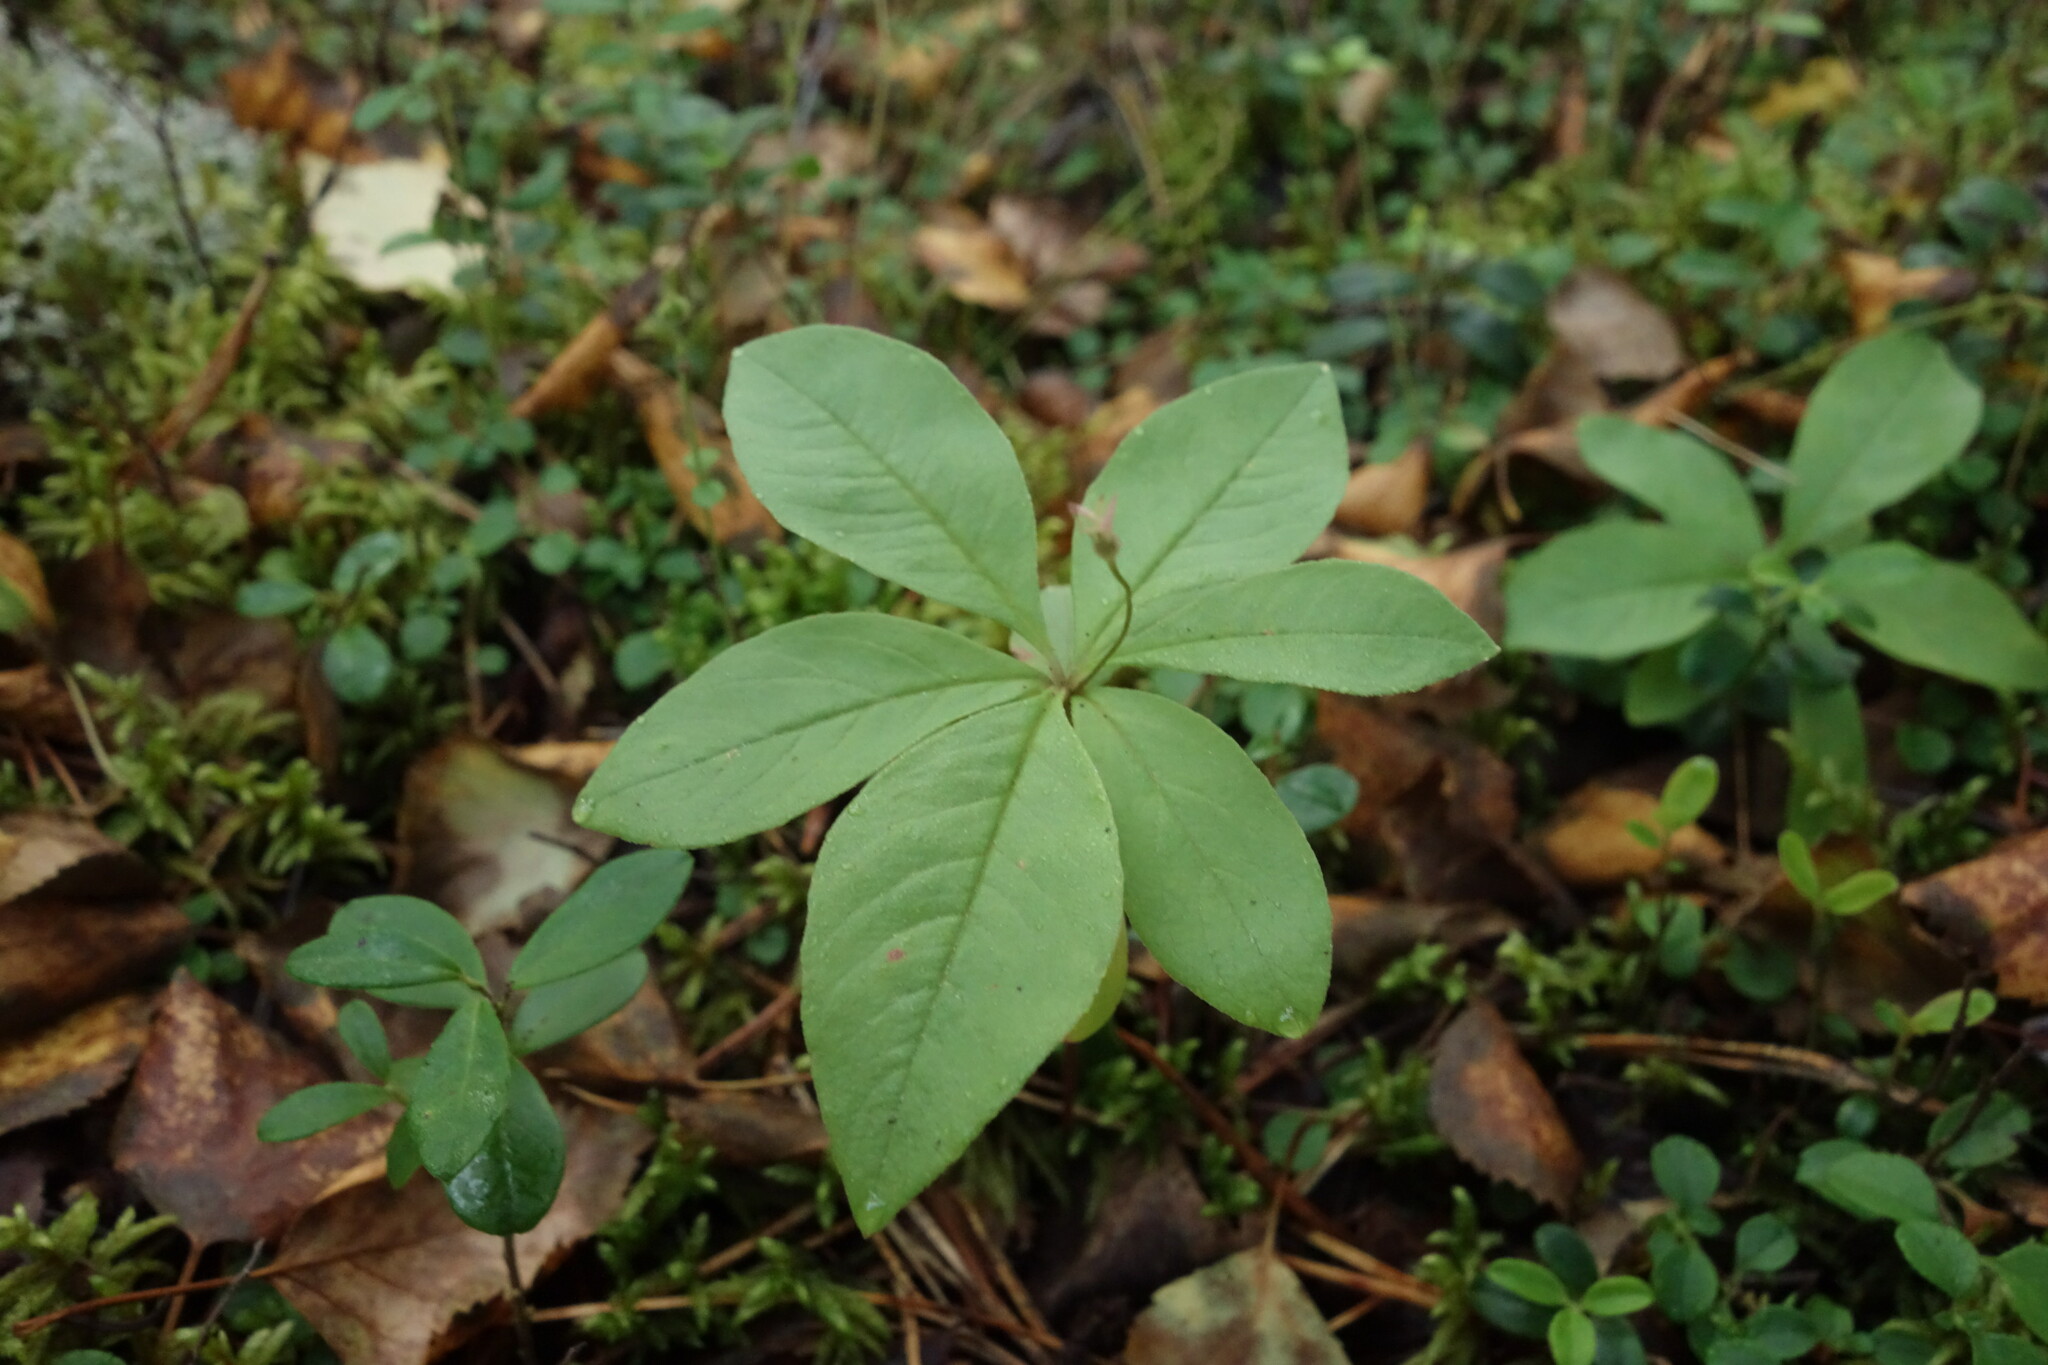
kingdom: Plantae
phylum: Tracheophyta
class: Magnoliopsida
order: Ericales
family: Primulaceae
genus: Lysimachia
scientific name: Lysimachia europaea
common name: Arctic starflower
